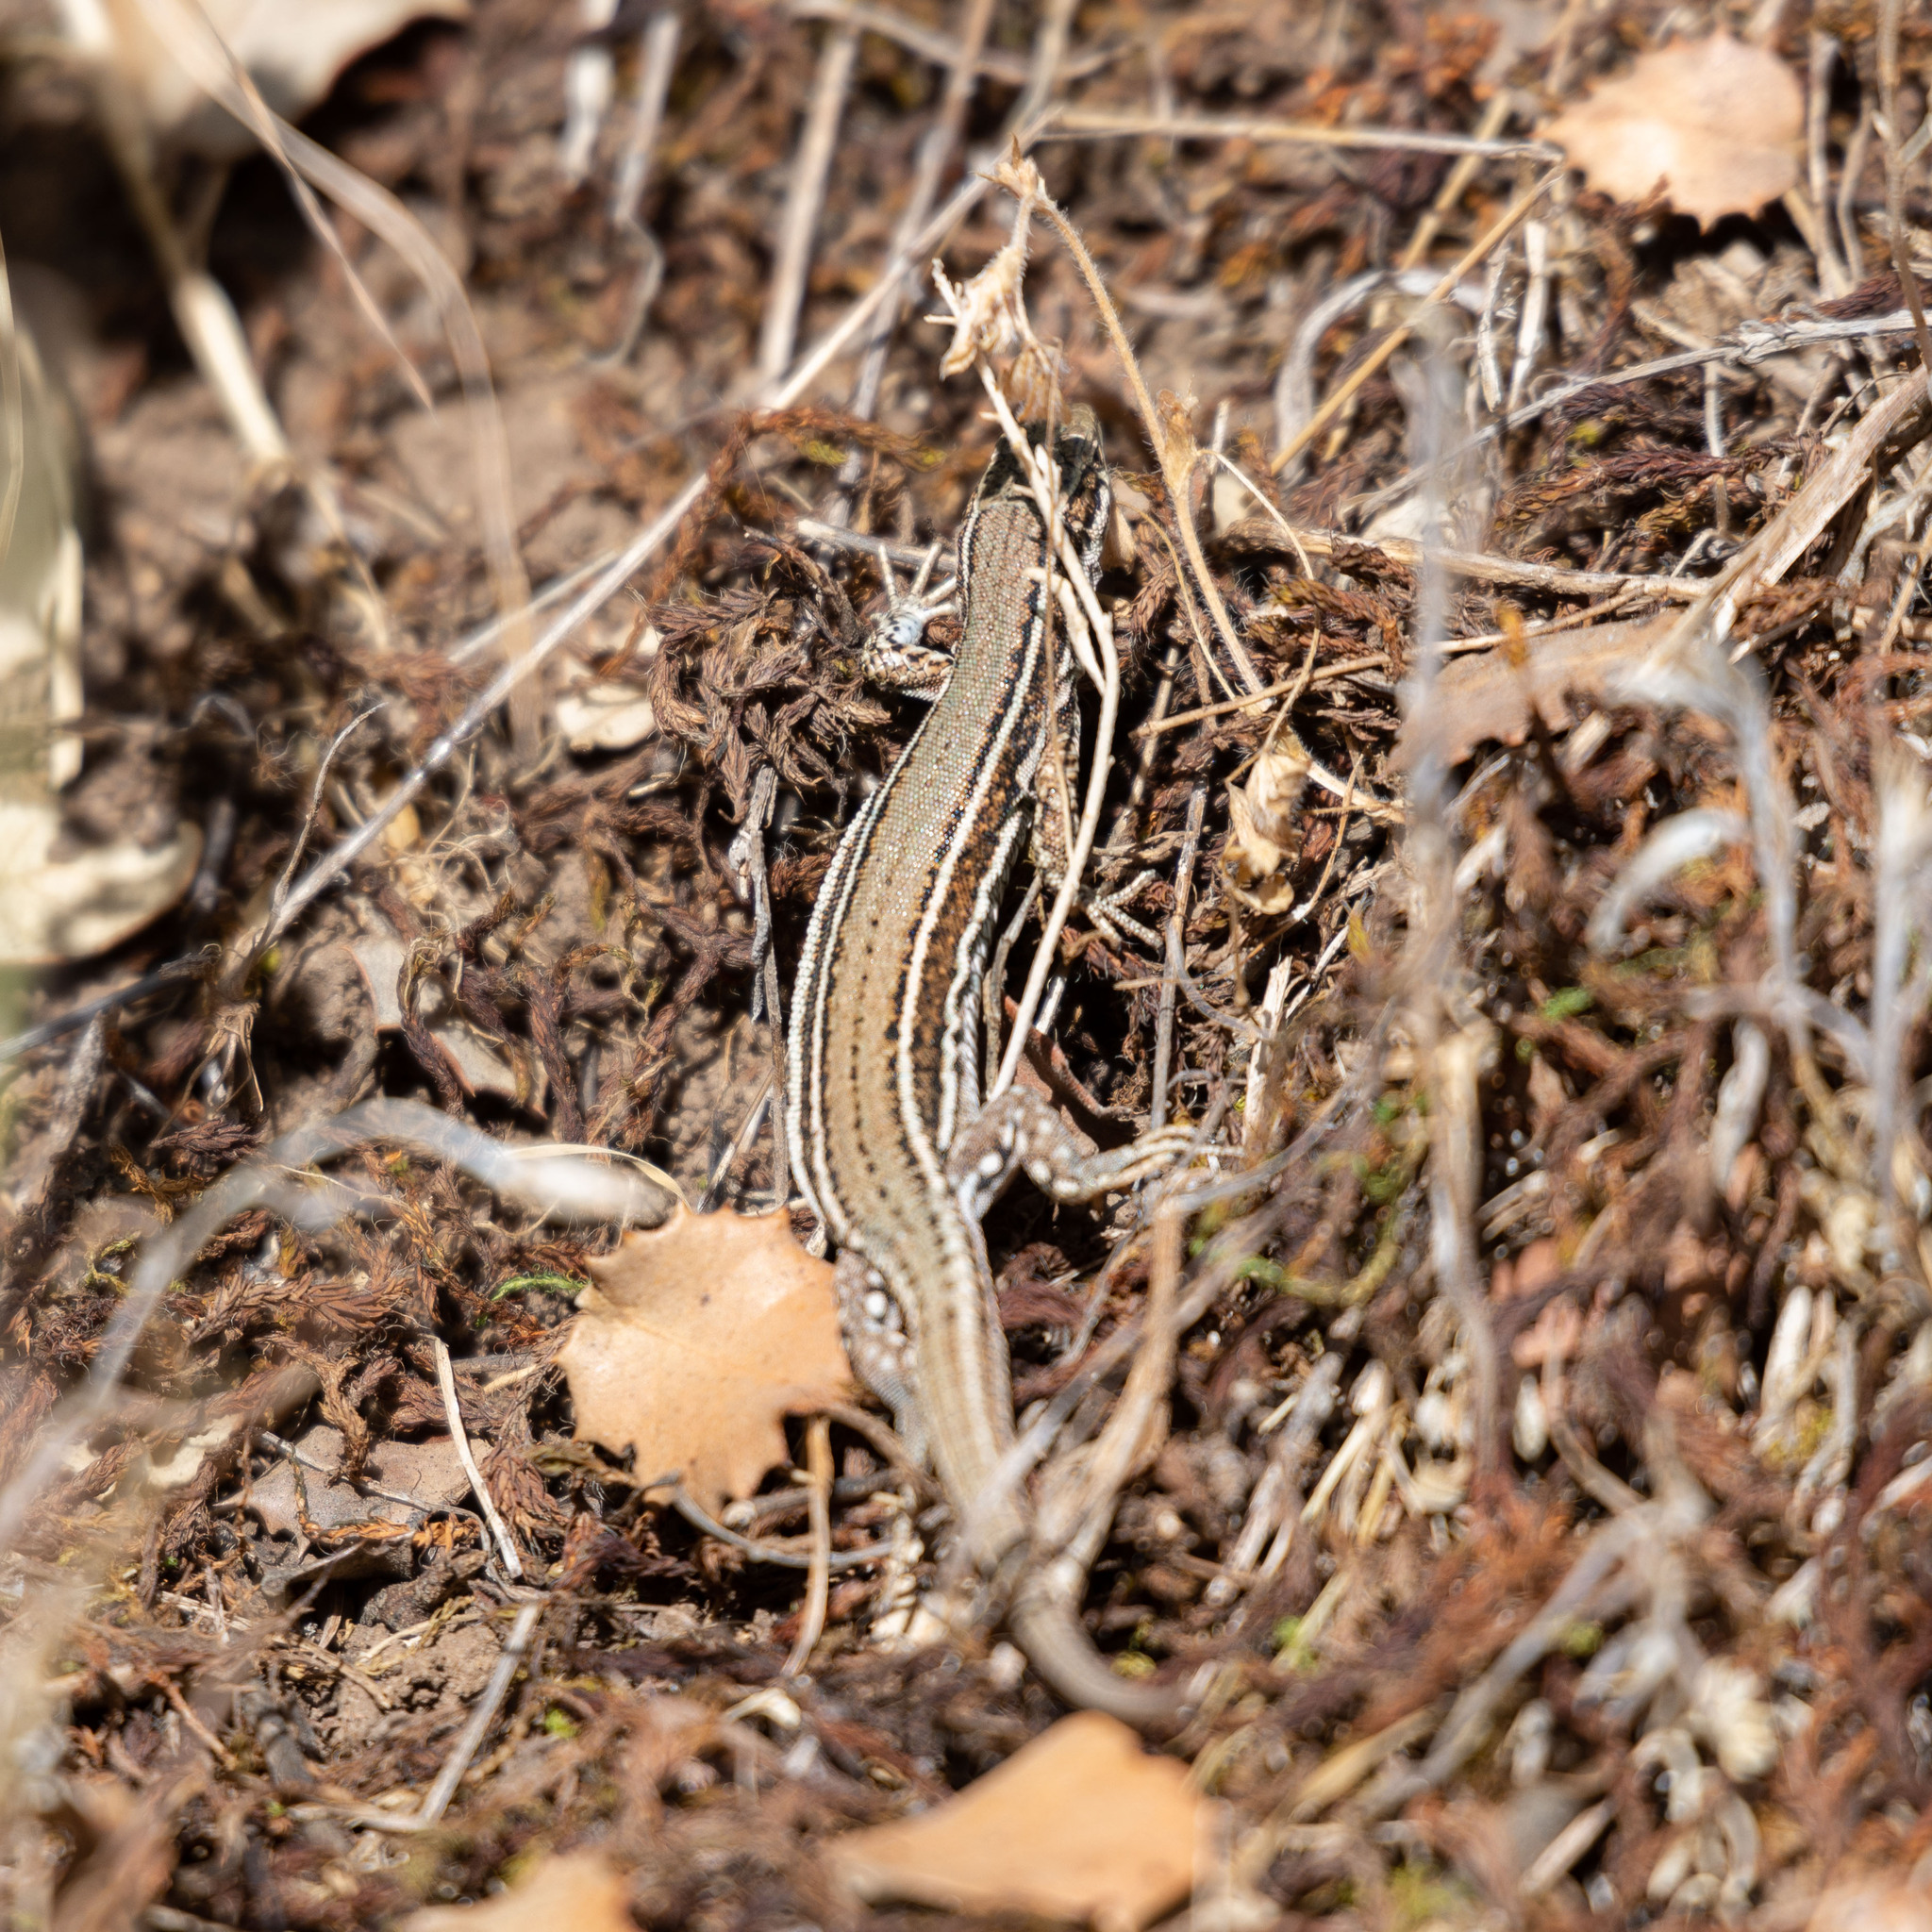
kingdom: Animalia
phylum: Chordata
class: Squamata
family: Lacertidae
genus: Podarcis
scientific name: Podarcis liolepis
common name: Catalonian wall lizard
